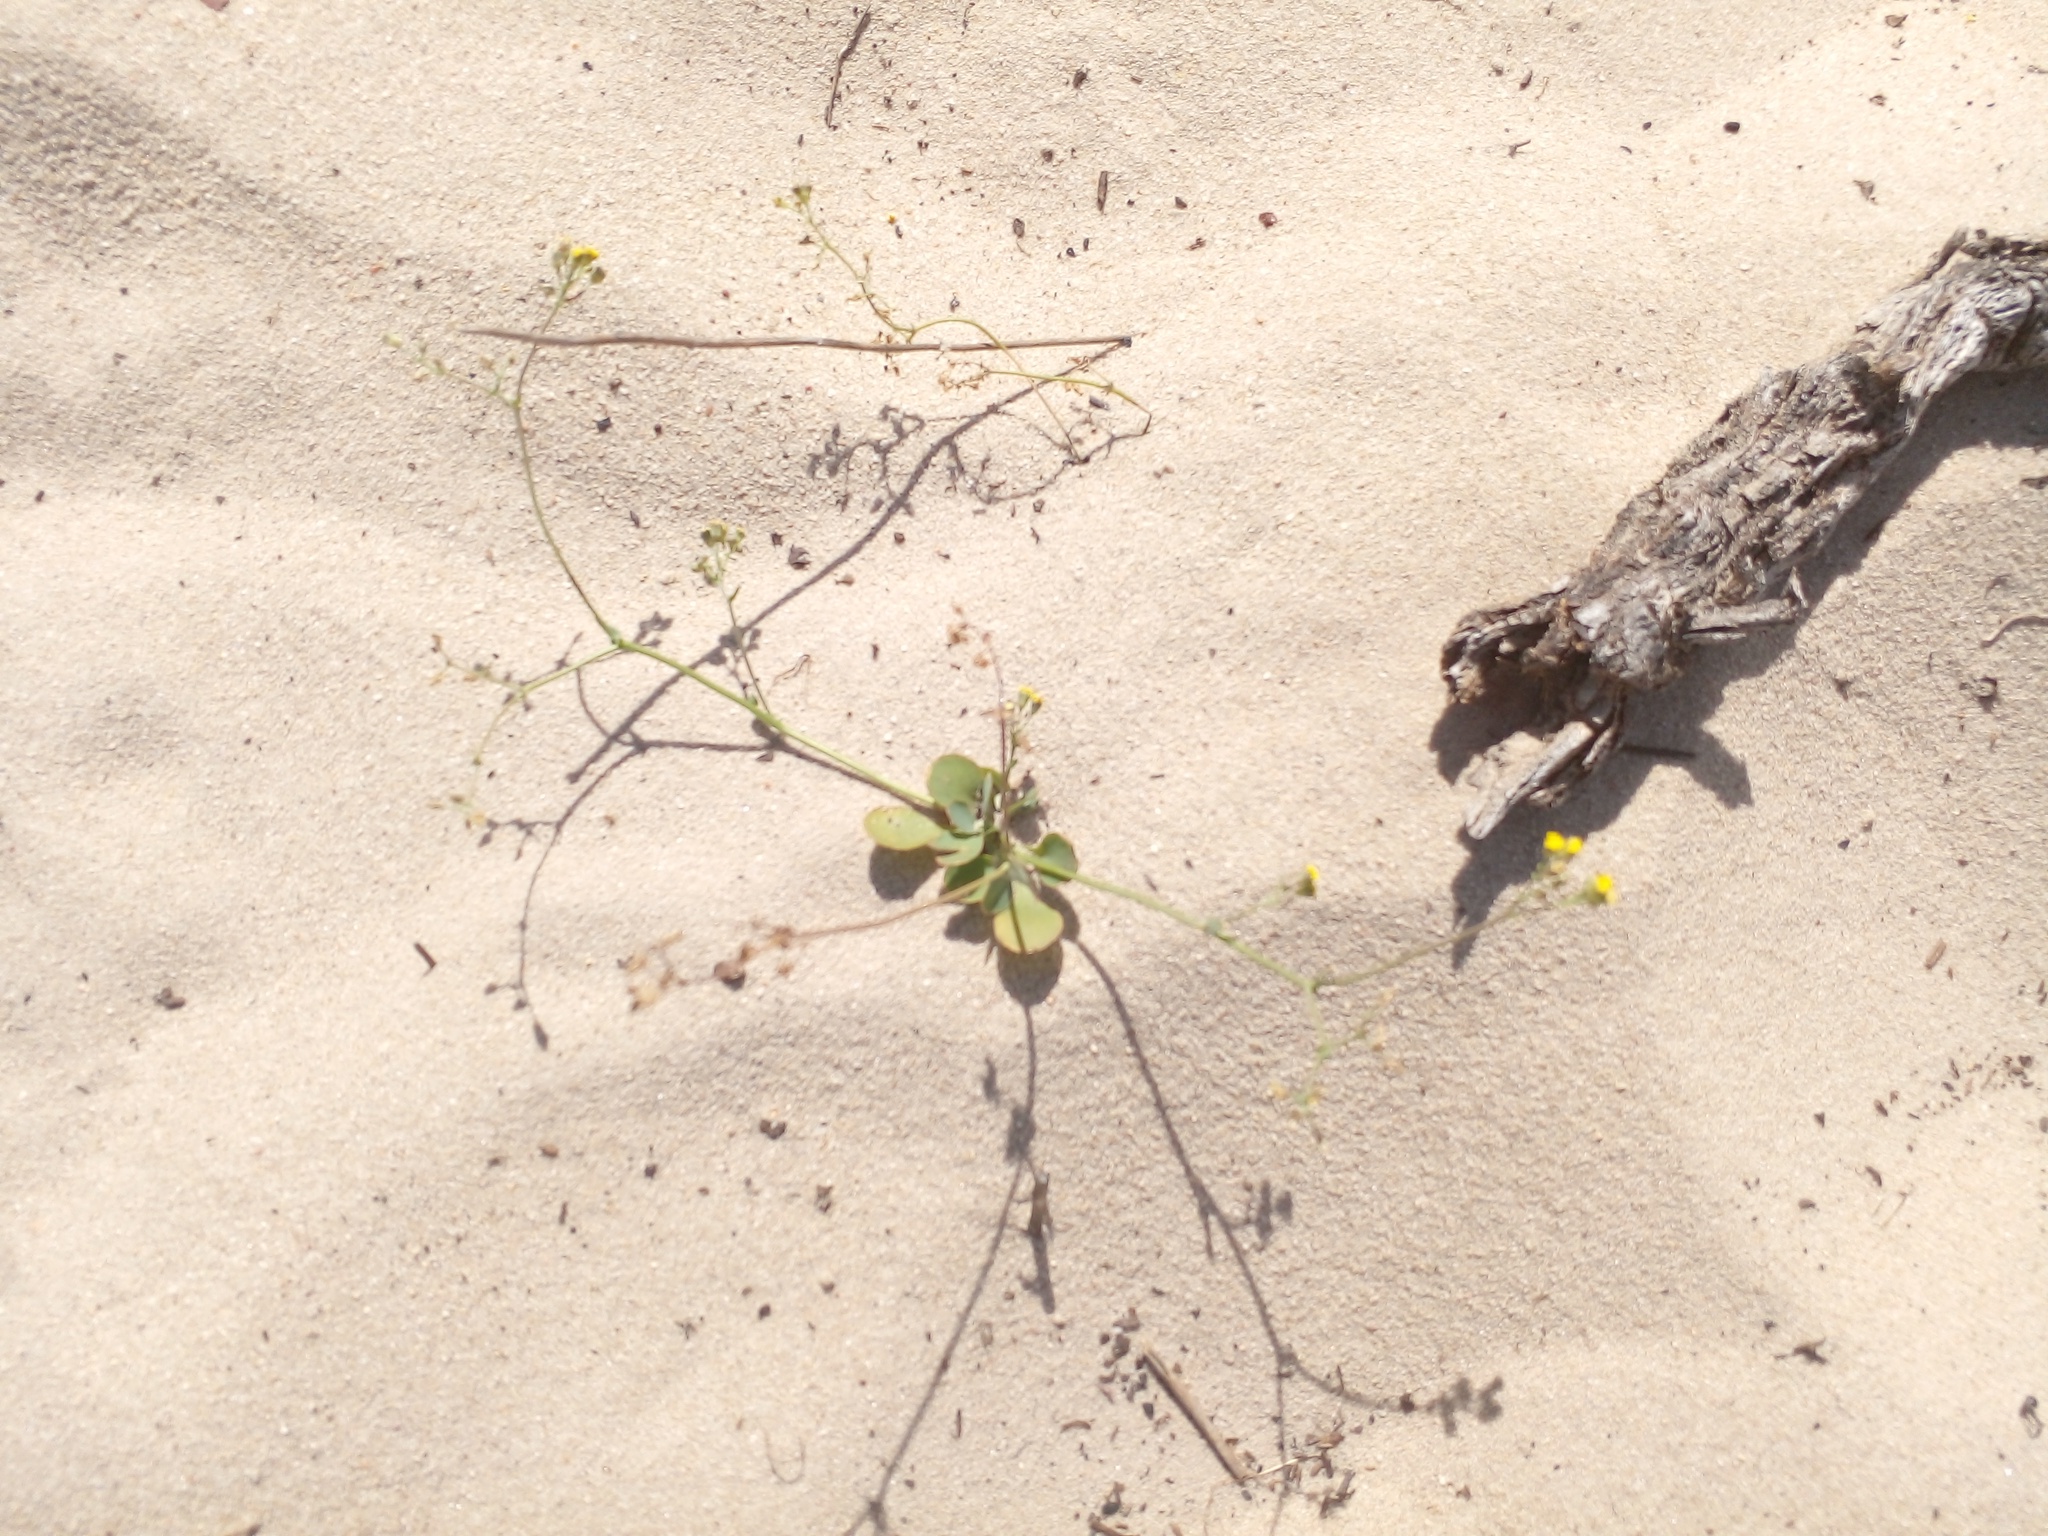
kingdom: Plantae
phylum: Tracheophyta
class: Magnoliopsida
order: Asterales
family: Asteraceae
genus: Gymnodiscus
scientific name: Gymnodiscus capillaris
